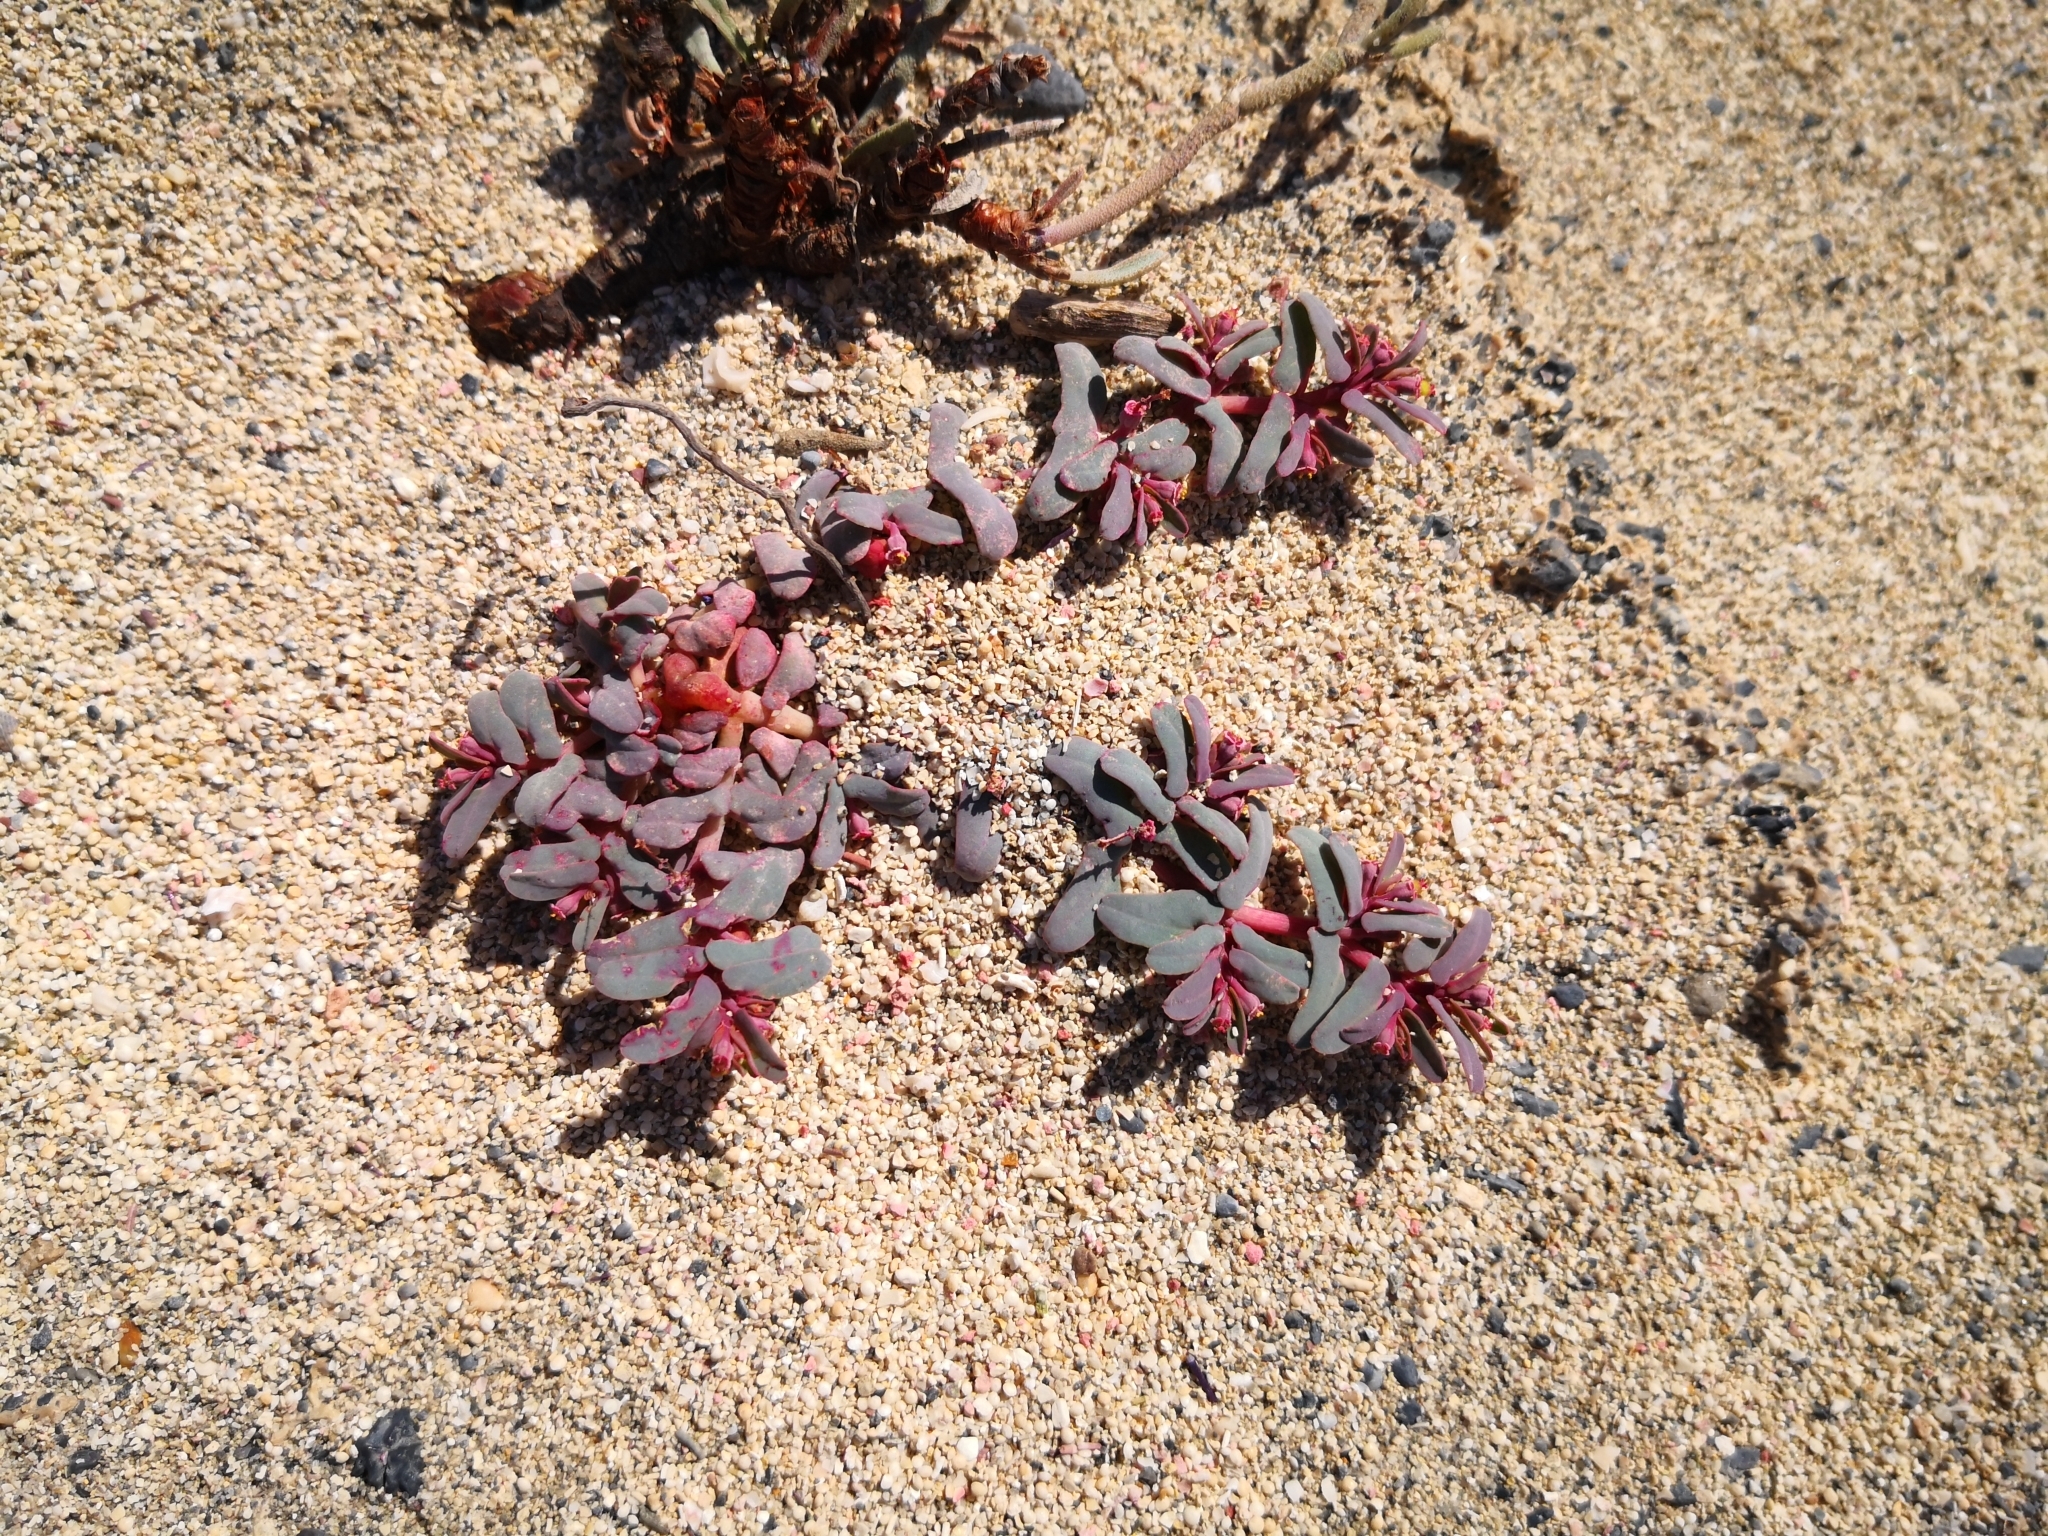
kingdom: Plantae
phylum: Tracheophyta
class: Magnoliopsida
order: Malpighiales
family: Euphorbiaceae
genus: Euphorbia
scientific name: Euphorbia peplis
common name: Purple spurge
